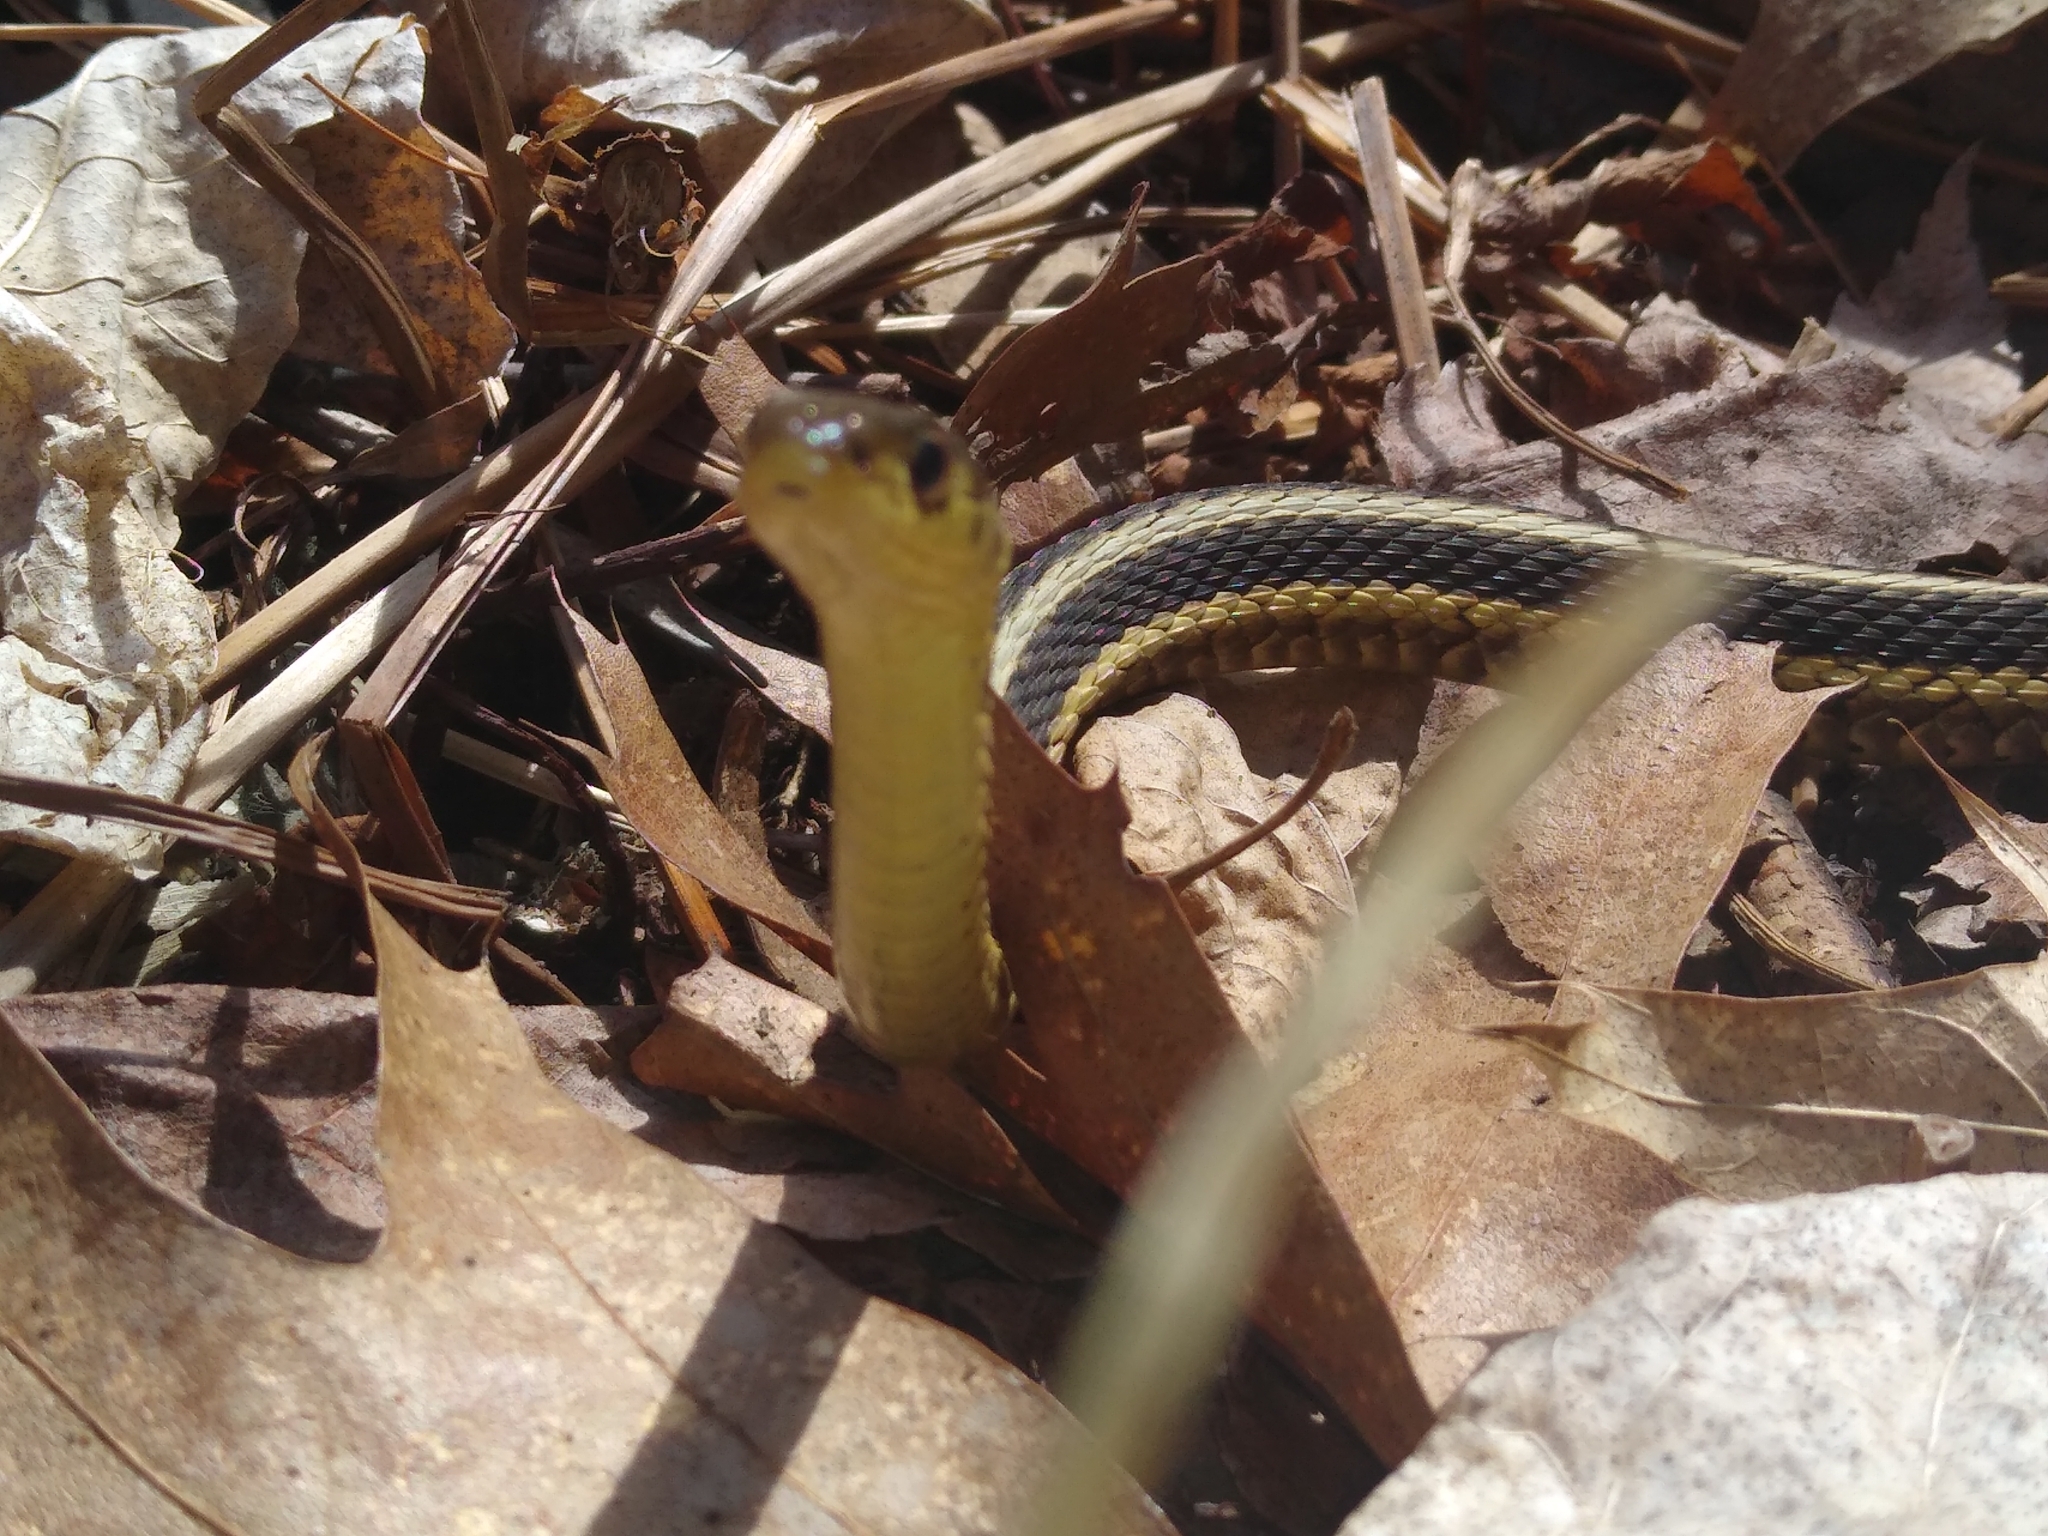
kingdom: Animalia
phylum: Chordata
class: Squamata
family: Colubridae
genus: Thamnophis
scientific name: Thamnophis sirtalis
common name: Common garter snake
